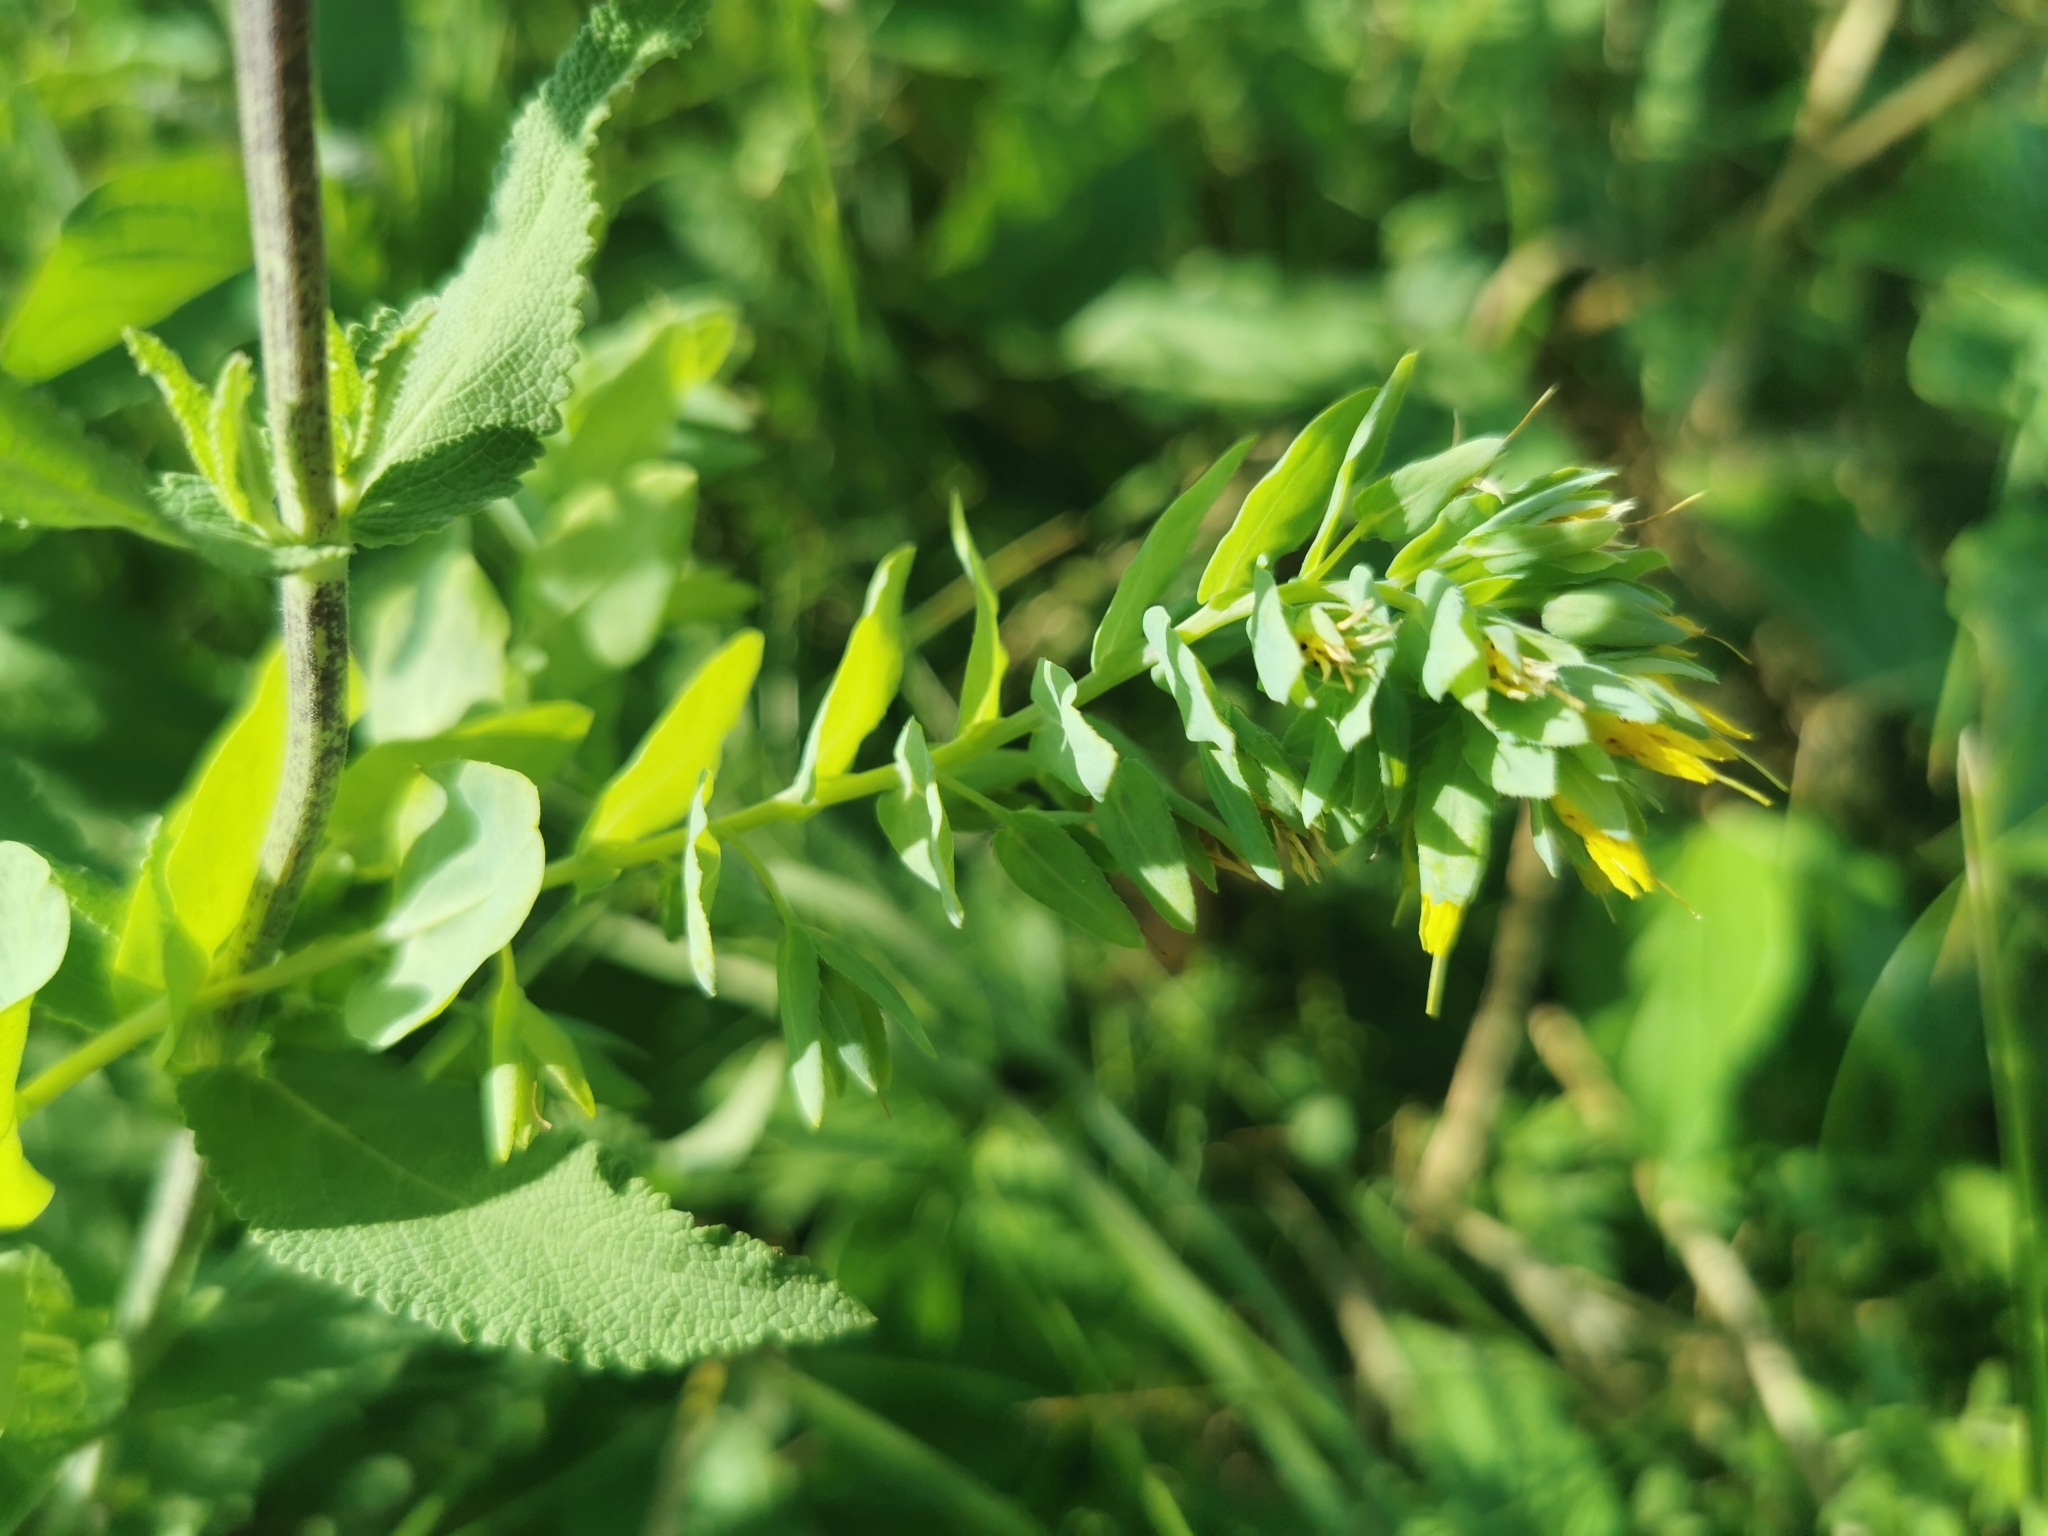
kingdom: Plantae
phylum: Tracheophyta
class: Magnoliopsida
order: Boraginales
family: Boraginaceae
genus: Cerinthe
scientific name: Cerinthe minor
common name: Lesser honeywort
